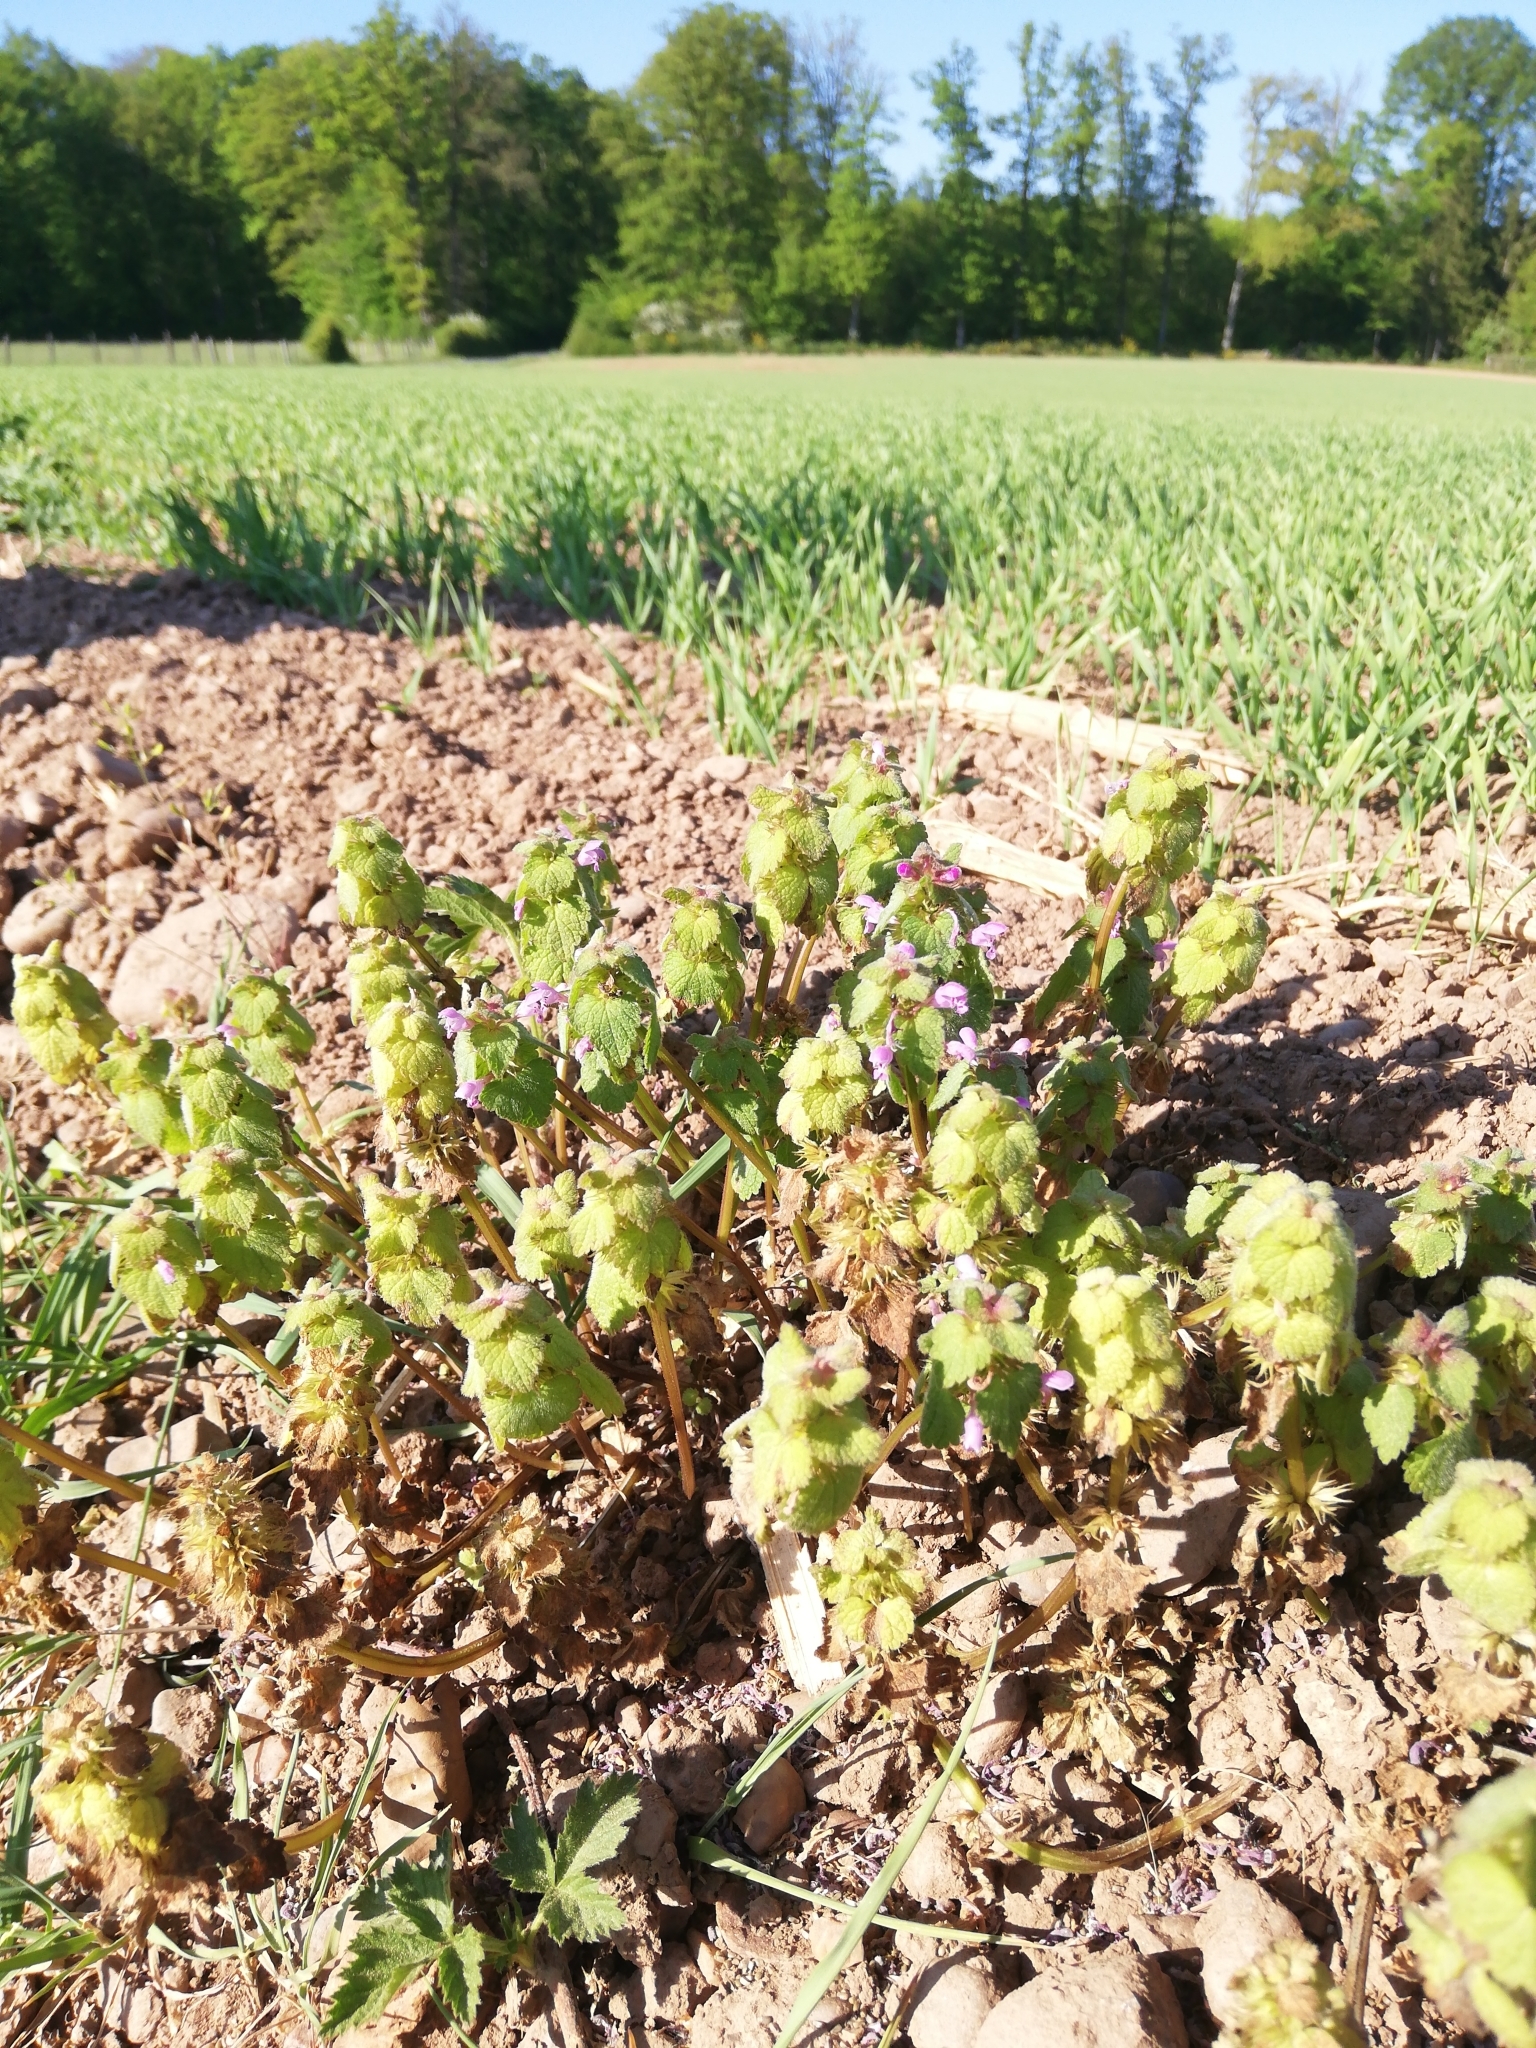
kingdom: Plantae
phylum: Tracheophyta
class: Magnoliopsida
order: Lamiales
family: Lamiaceae
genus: Lamium
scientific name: Lamium purpureum
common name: Red dead-nettle
